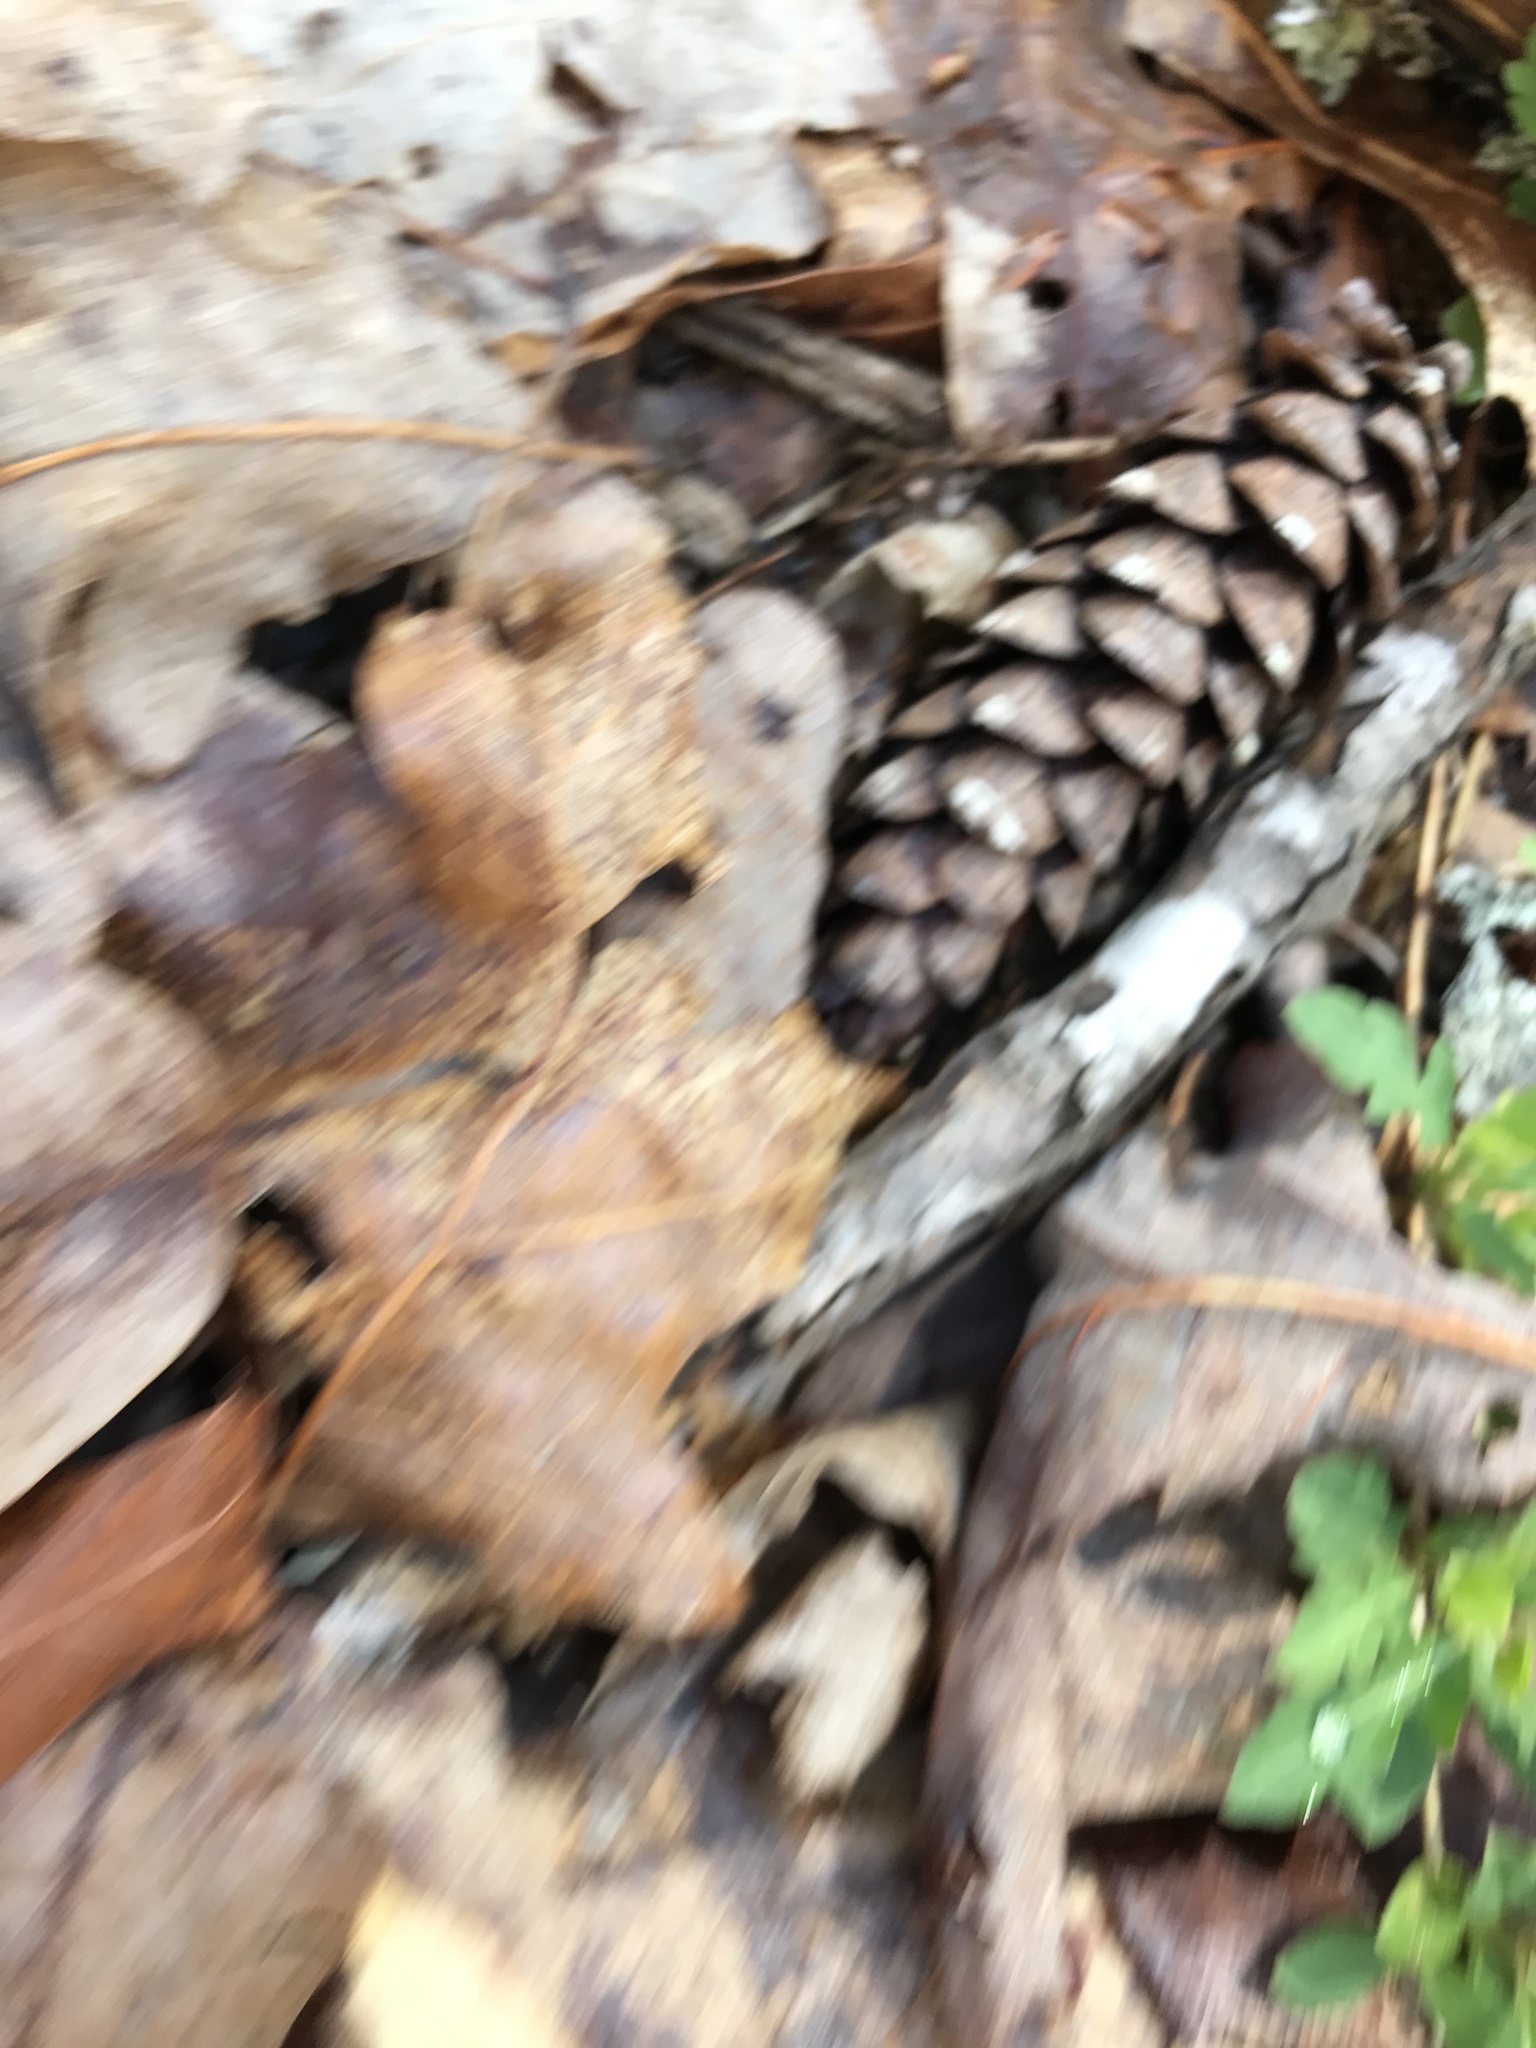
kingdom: Plantae
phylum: Tracheophyta
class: Pinopsida
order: Pinales
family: Pinaceae
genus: Pinus
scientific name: Pinus strobus
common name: Weymouth pine
